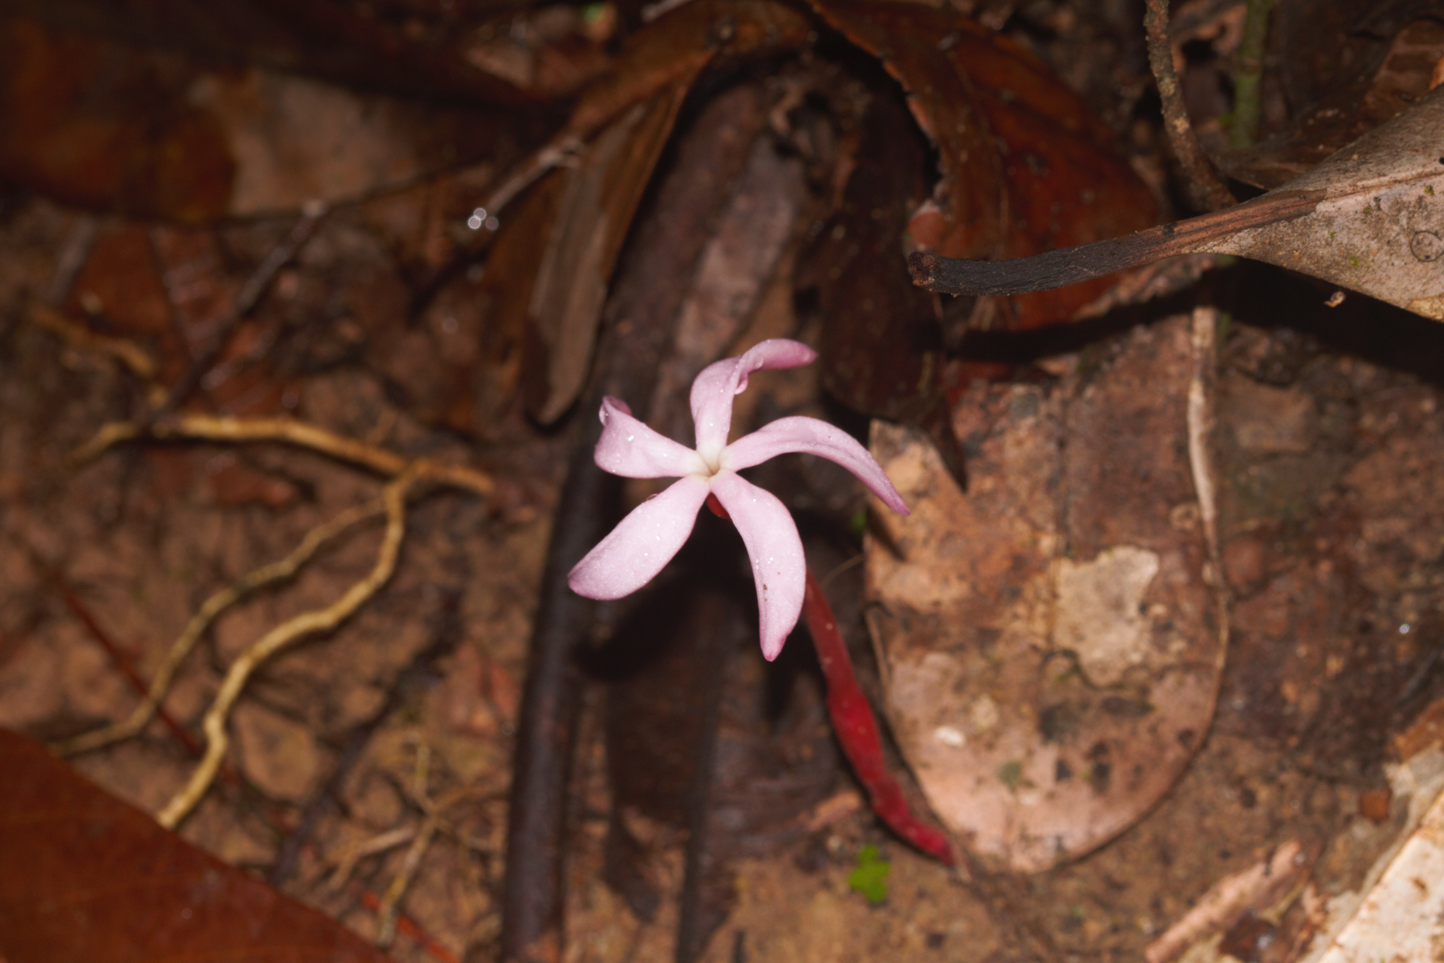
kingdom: Plantae
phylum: Tracheophyta
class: Magnoliopsida
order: Gentianales
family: Gentianaceae
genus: Voyria
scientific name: Voyria rosea
